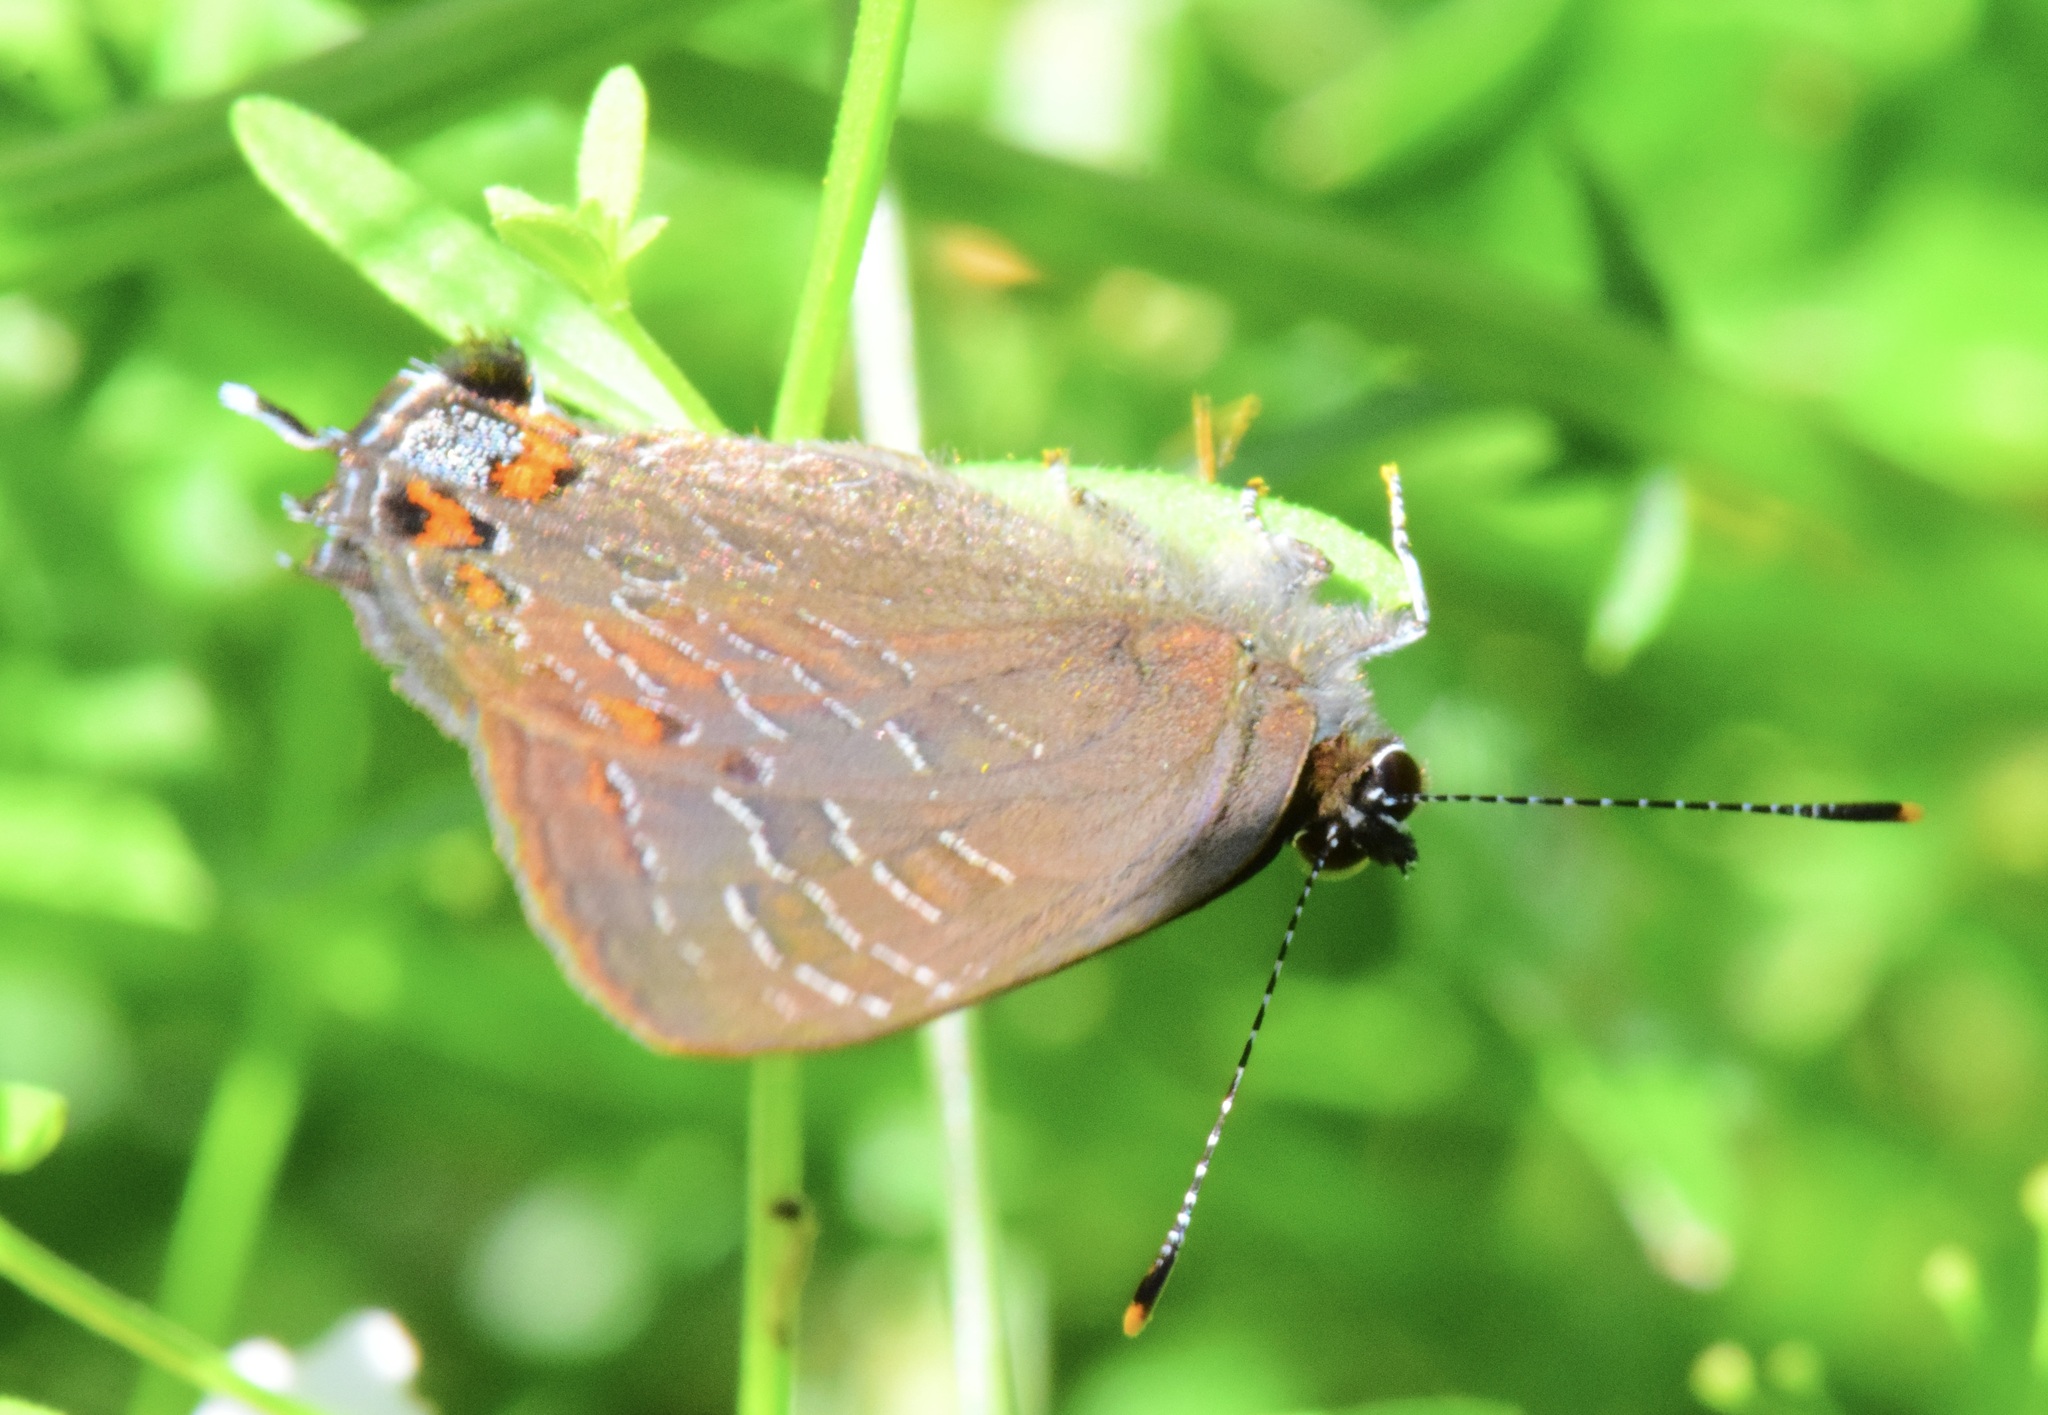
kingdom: Animalia
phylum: Arthropoda
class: Insecta
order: Lepidoptera
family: Lycaenidae
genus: Satyrium
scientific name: Satyrium liparops
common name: Striped hairstreak
